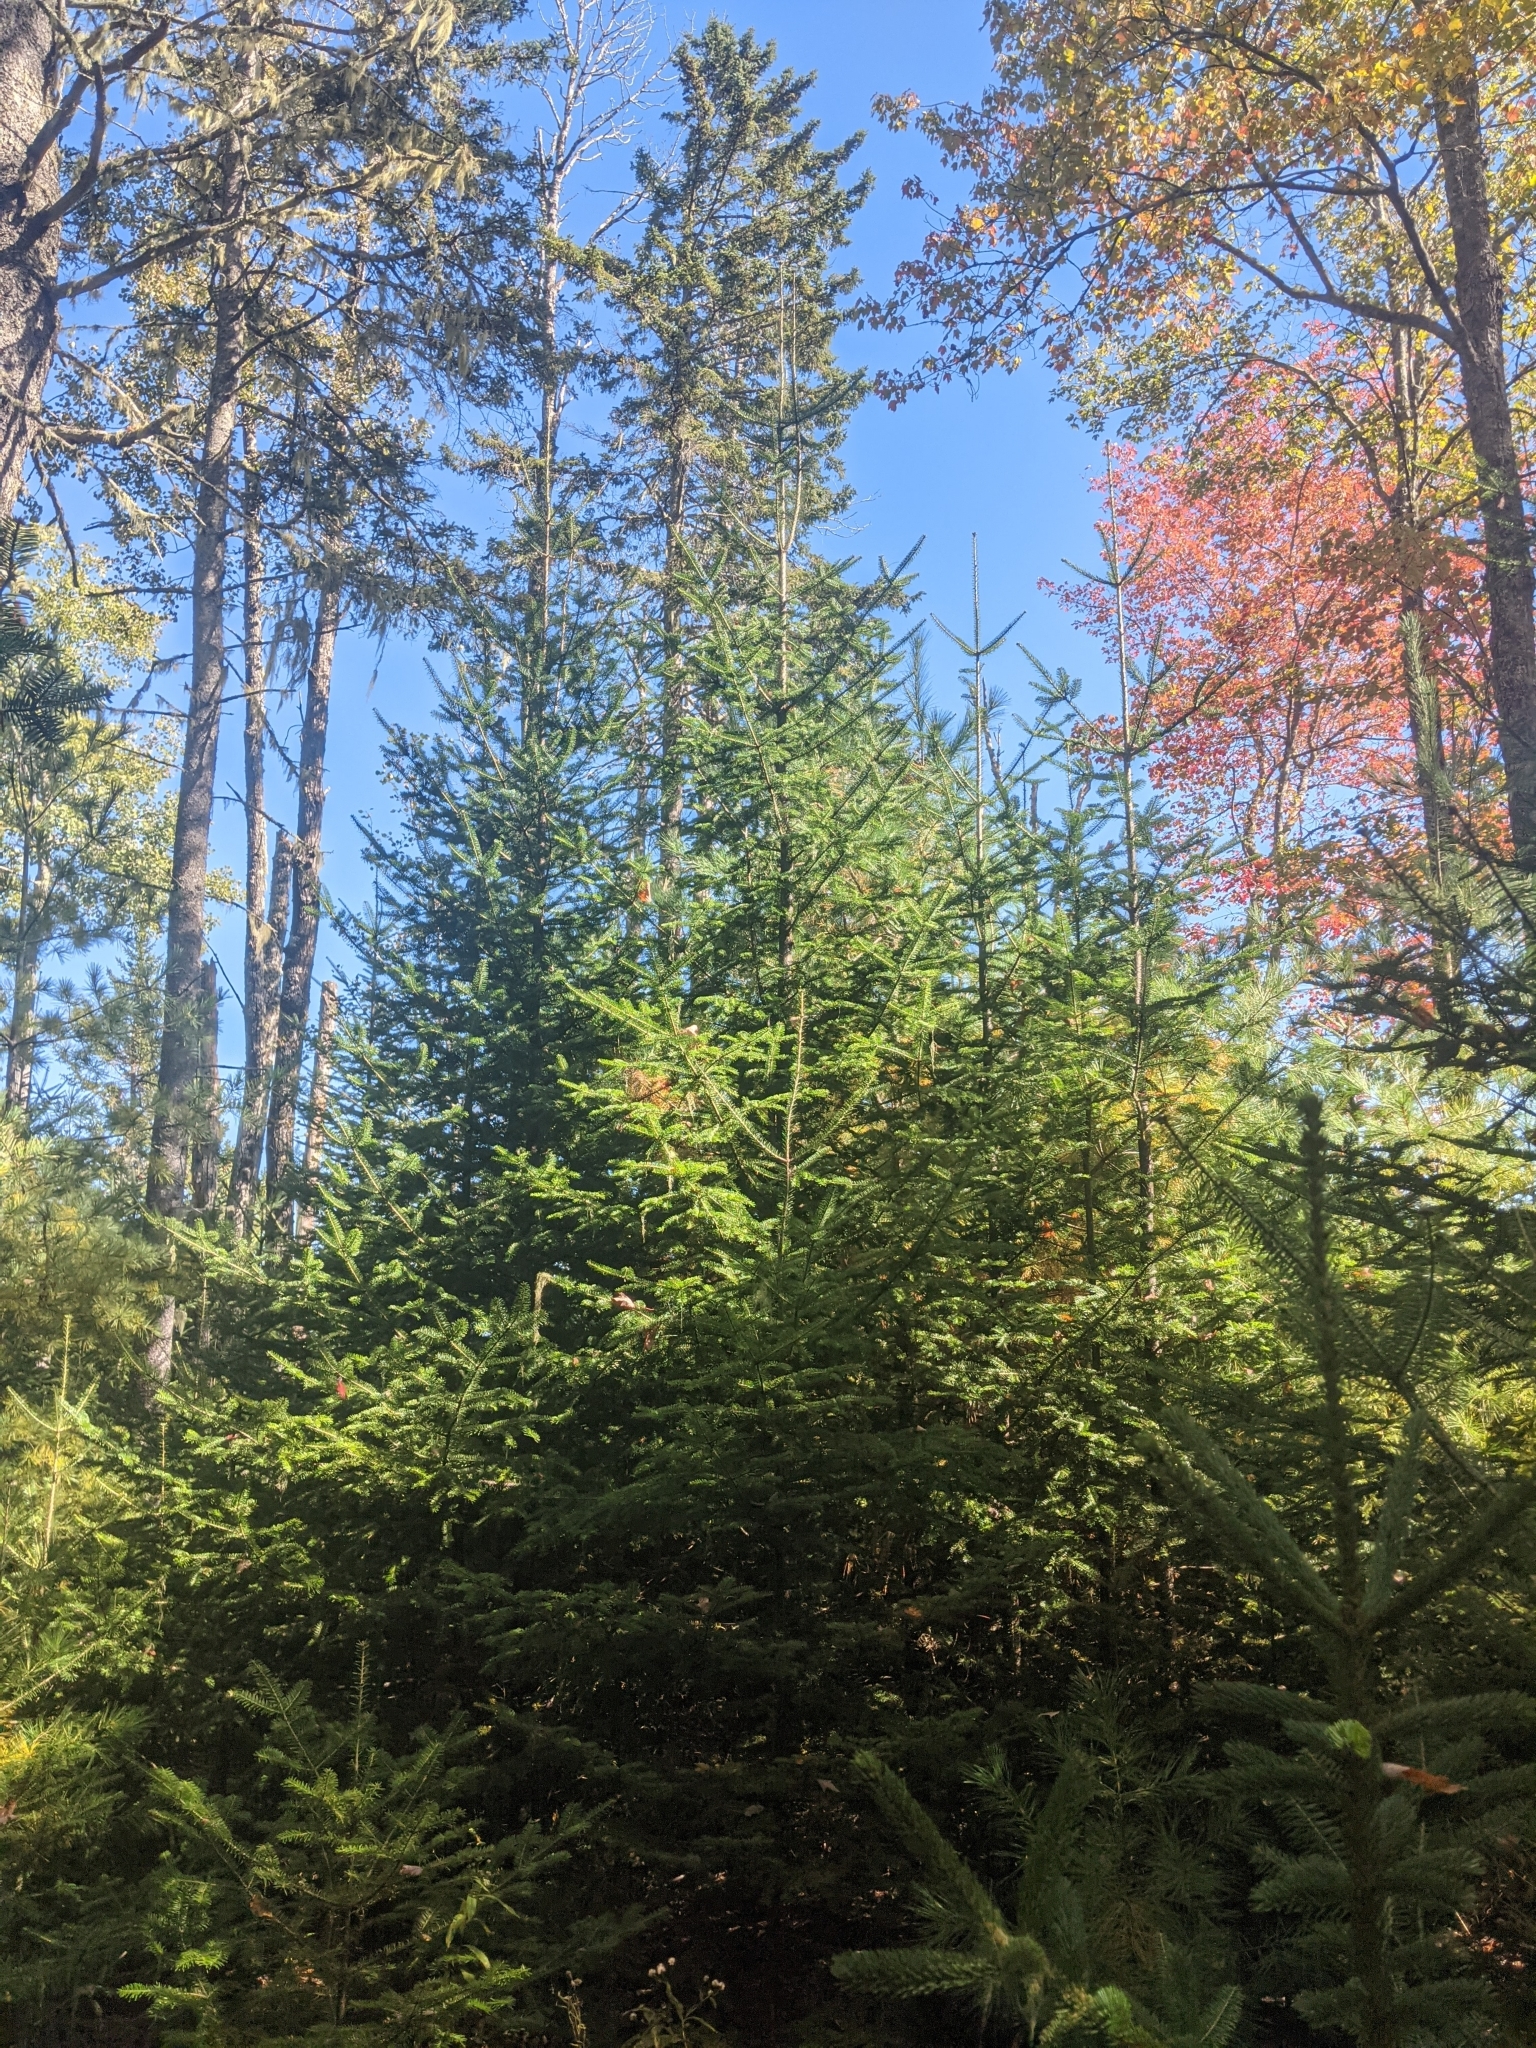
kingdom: Plantae
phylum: Tracheophyta
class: Pinopsida
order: Pinales
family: Pinaceae
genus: Abies
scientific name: Abies balsamea
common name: Balsam fir
